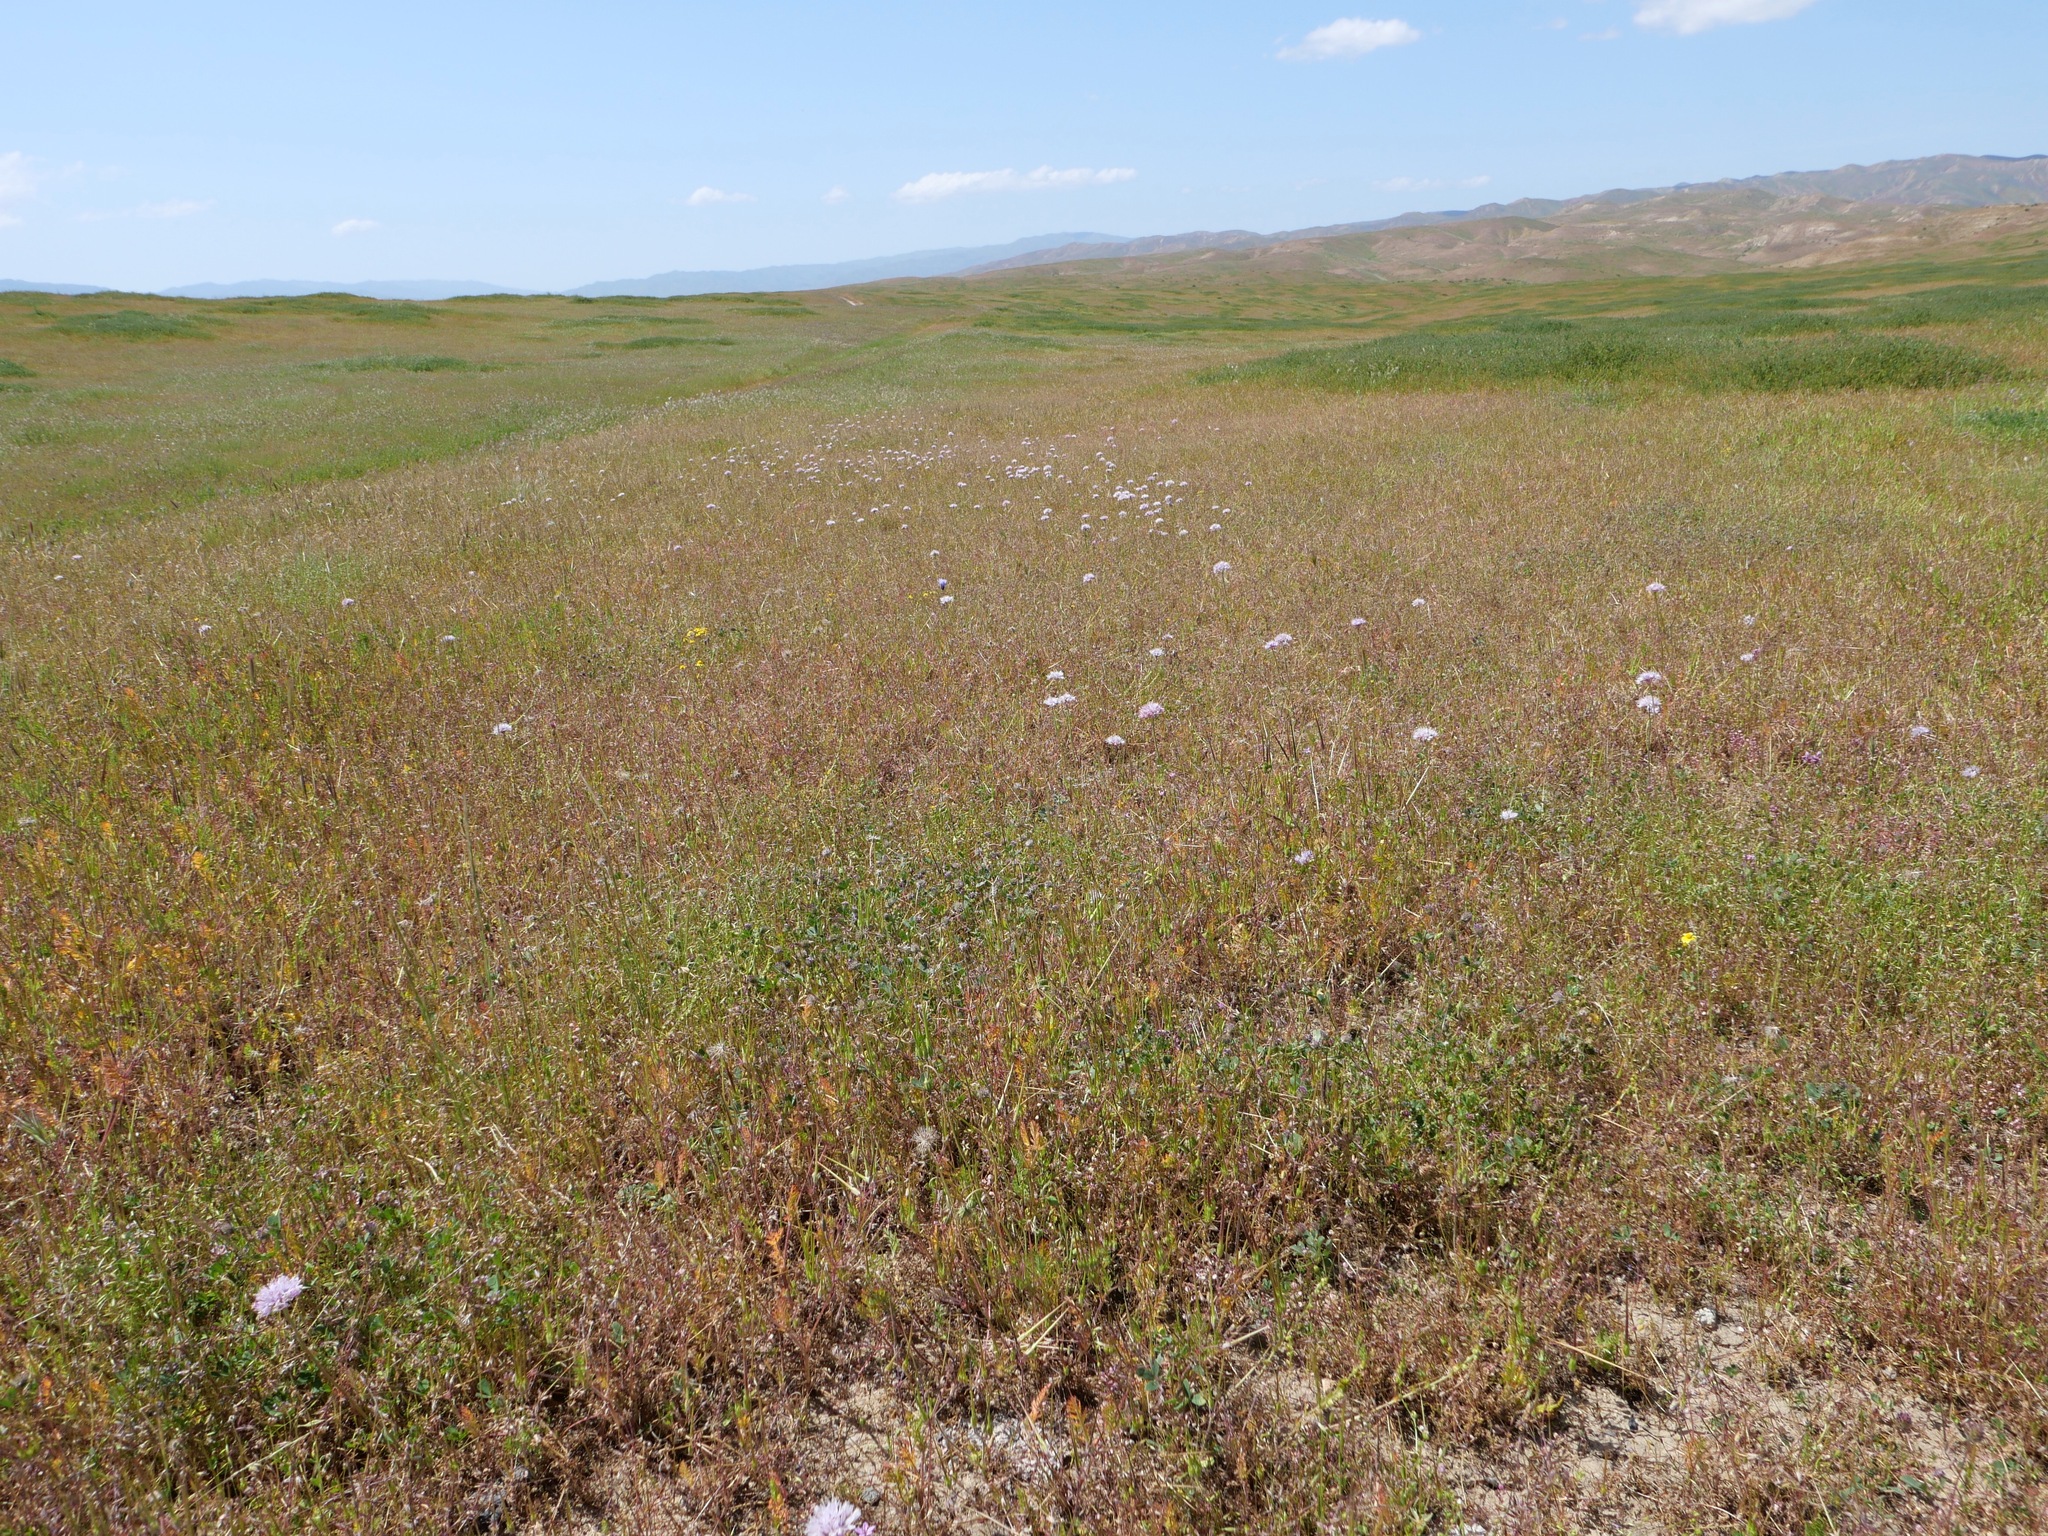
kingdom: Plantae
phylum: Tracheophyta
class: Liliopsida
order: Asparagales
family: Amaryllidaceae
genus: Allium
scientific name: Allium howellii
